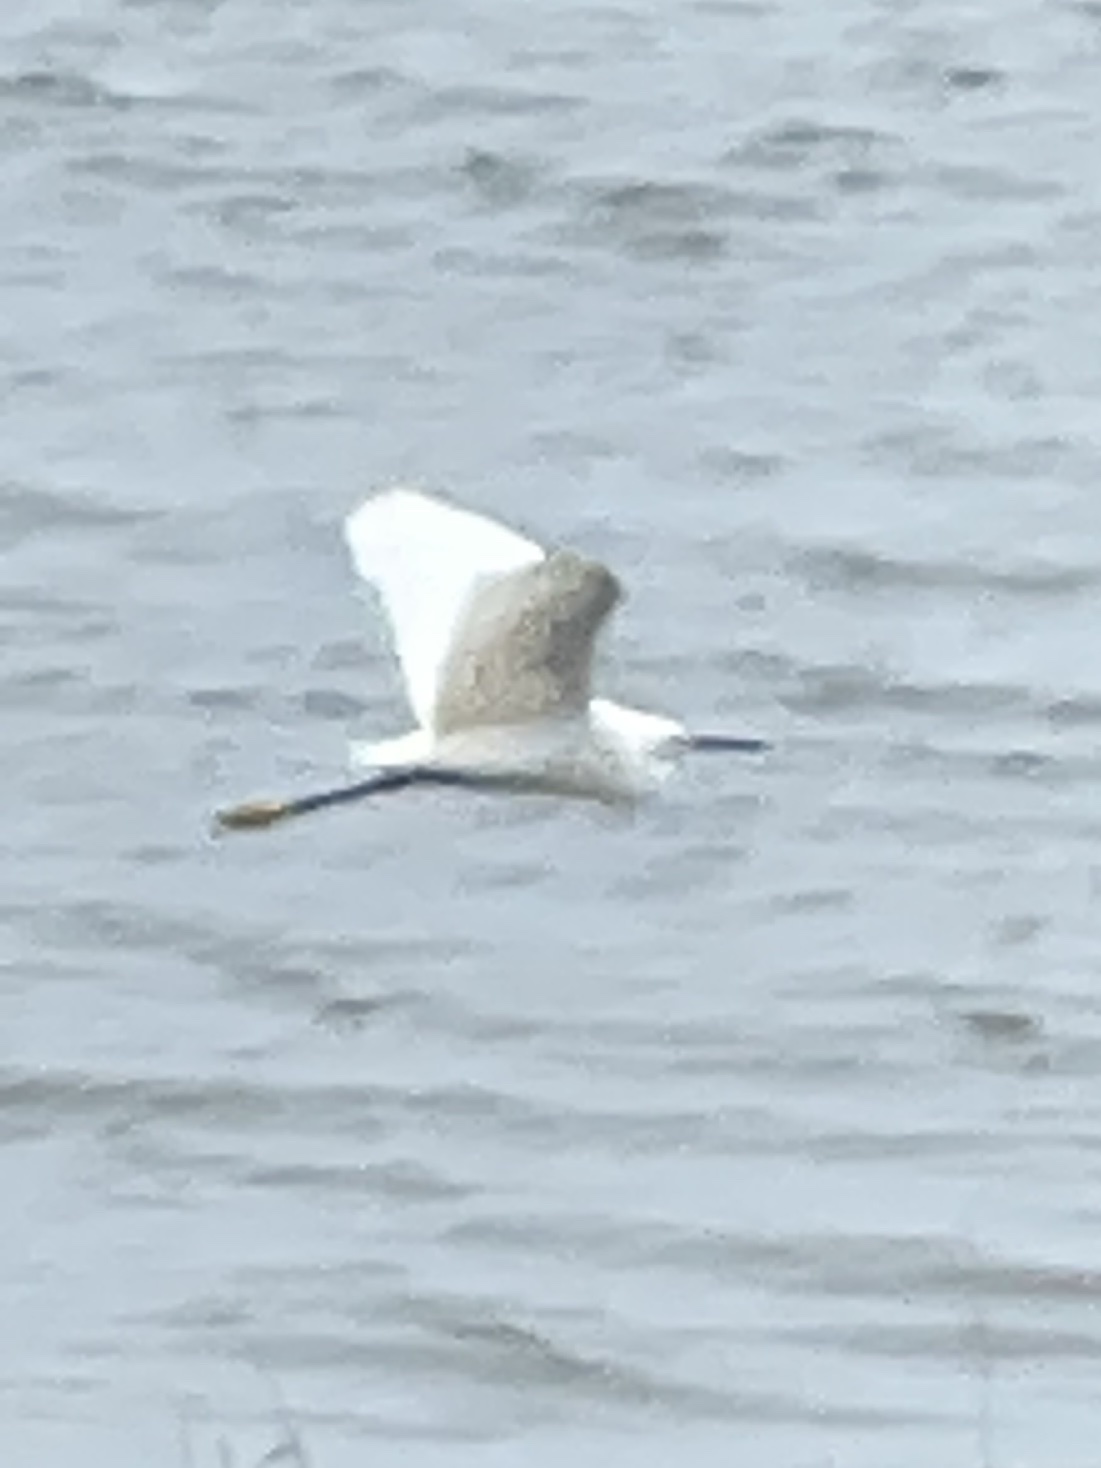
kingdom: Animalia
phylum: Chordata
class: Aves
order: Pelecaniformes
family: Ardeidae
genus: Egretta
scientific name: Egretta thula
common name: Snowy egret
